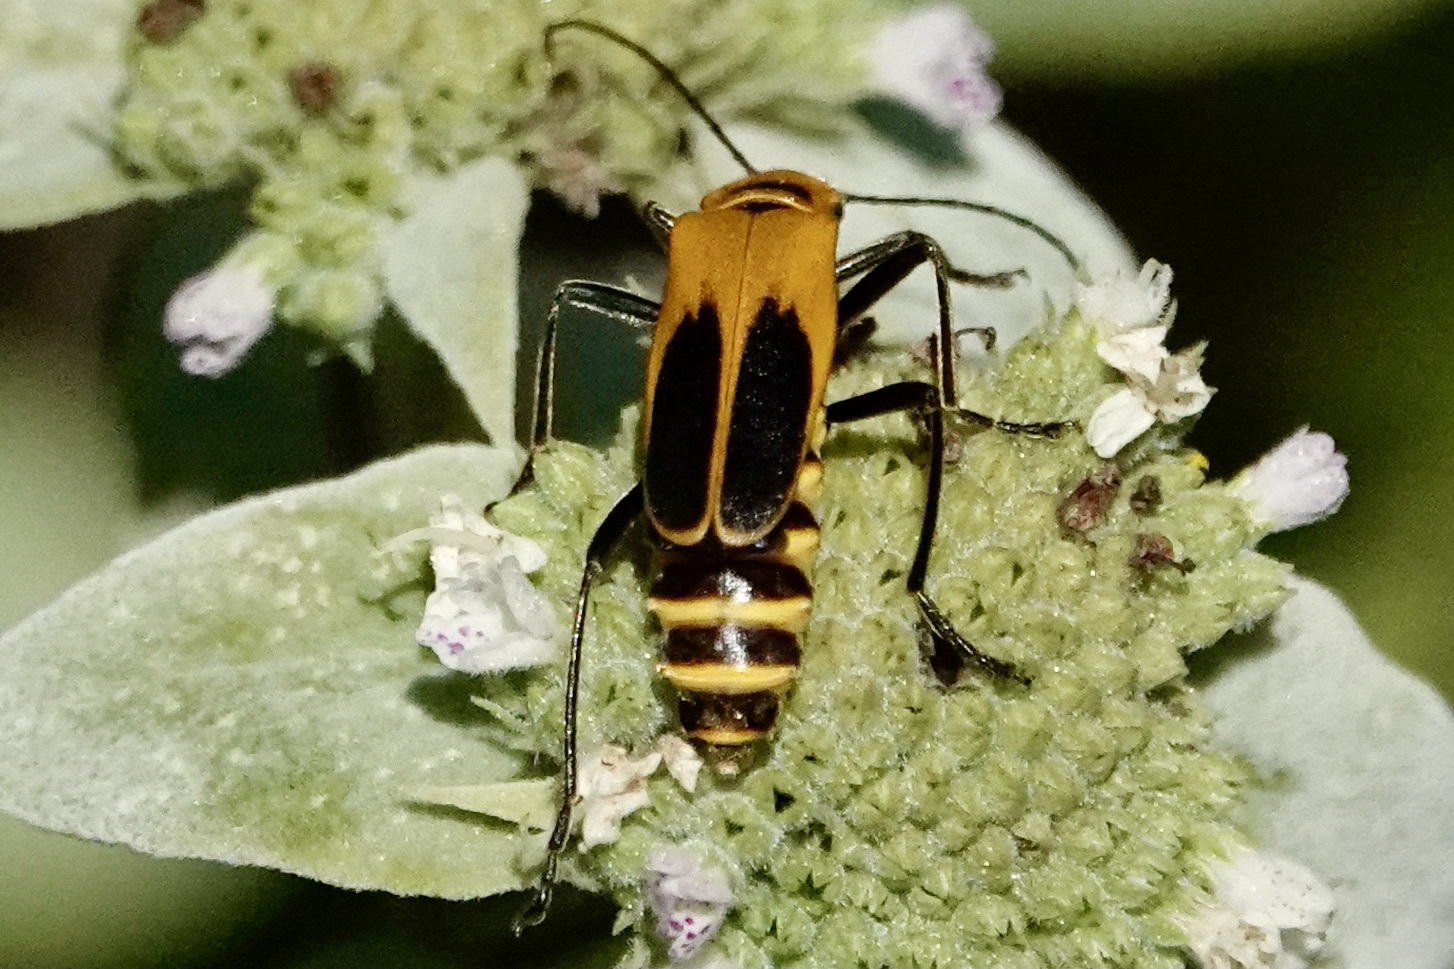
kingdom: Animalia
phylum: Arthropoda
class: Insecta
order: Coleoptera
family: Cantharidae
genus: Chauliognathus
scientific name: Chauliognathus pensylvanicus
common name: Goldenrod soldier beetle
